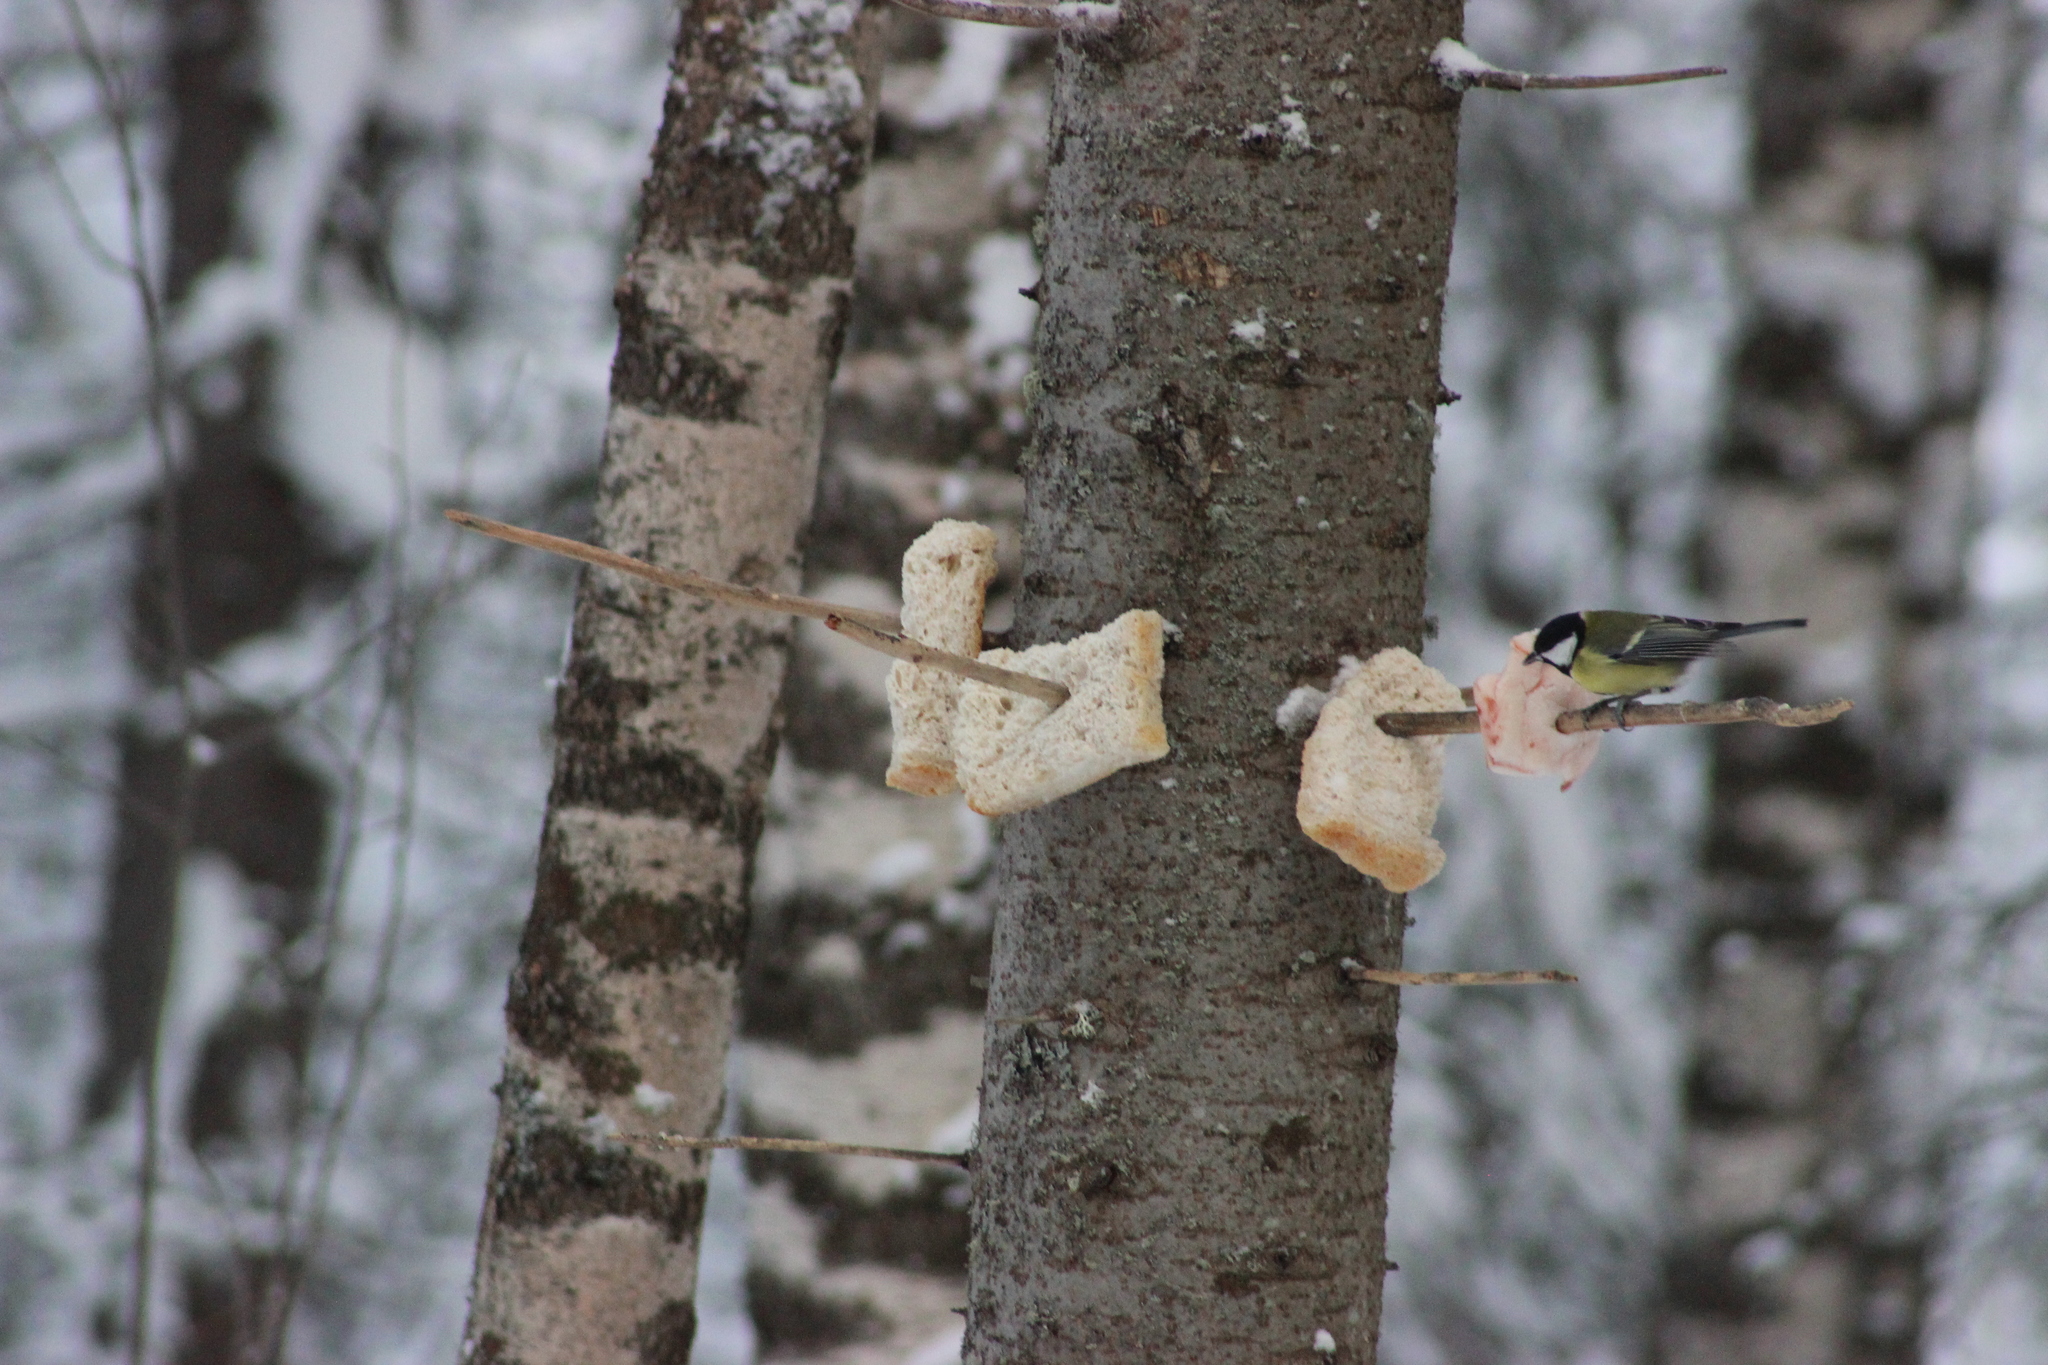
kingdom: Animalia
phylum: Chordata
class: Aves
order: Passeriformes
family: Paridae
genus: Parus
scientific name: Parus major
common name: Great tit
